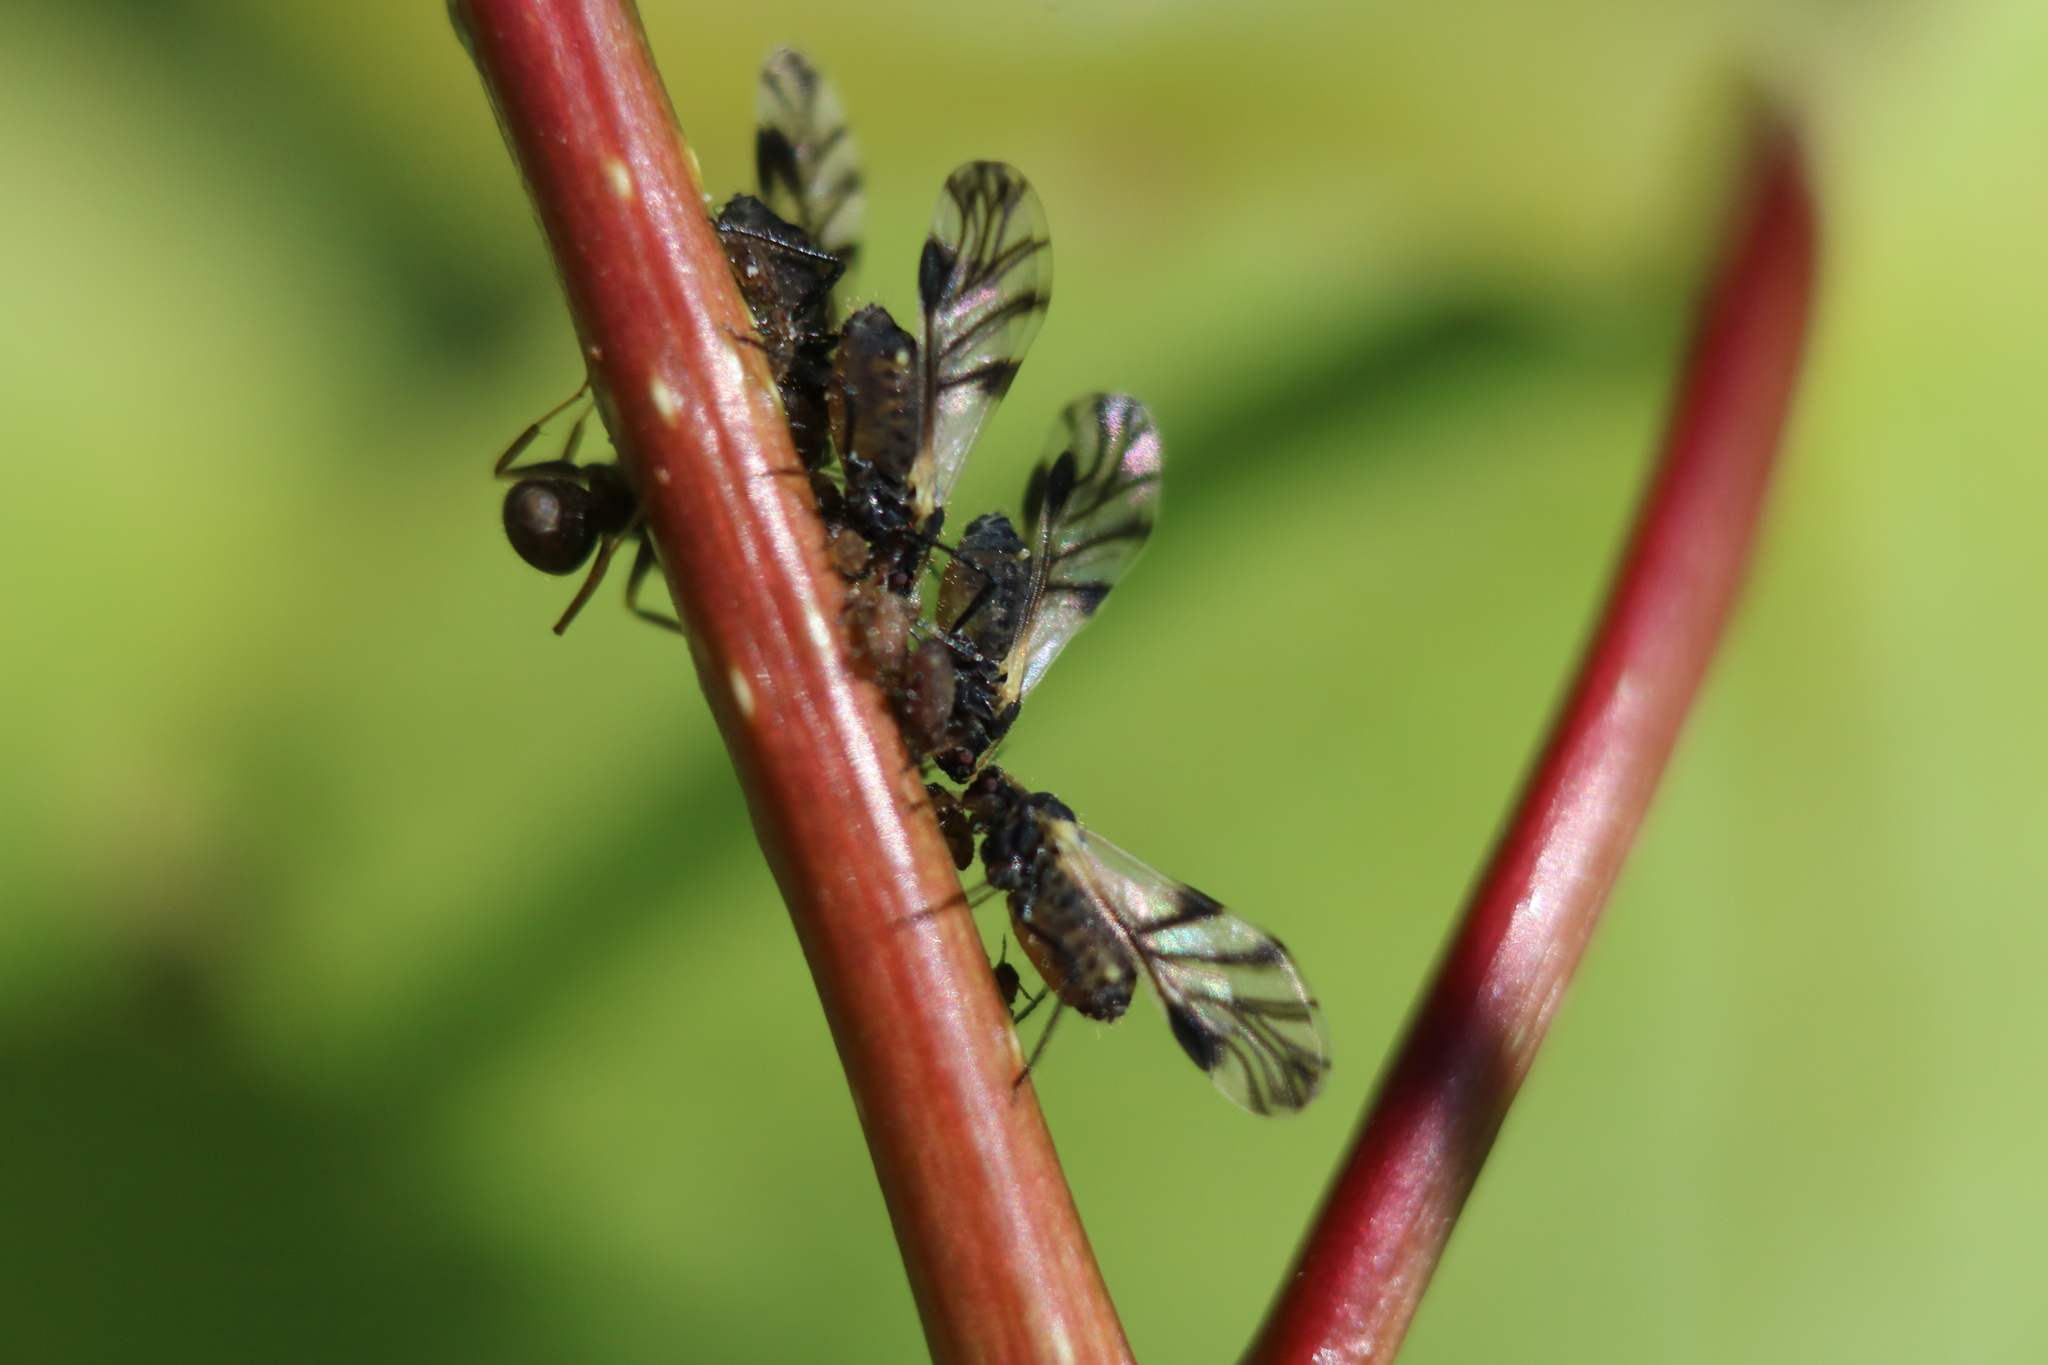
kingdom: Animalia
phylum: Arthropoda
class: Insecta
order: Hemiptera
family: Aphididae
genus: Chaitophorus
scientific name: Chaitophorus populicola
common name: Smokywinged poplar aphid
